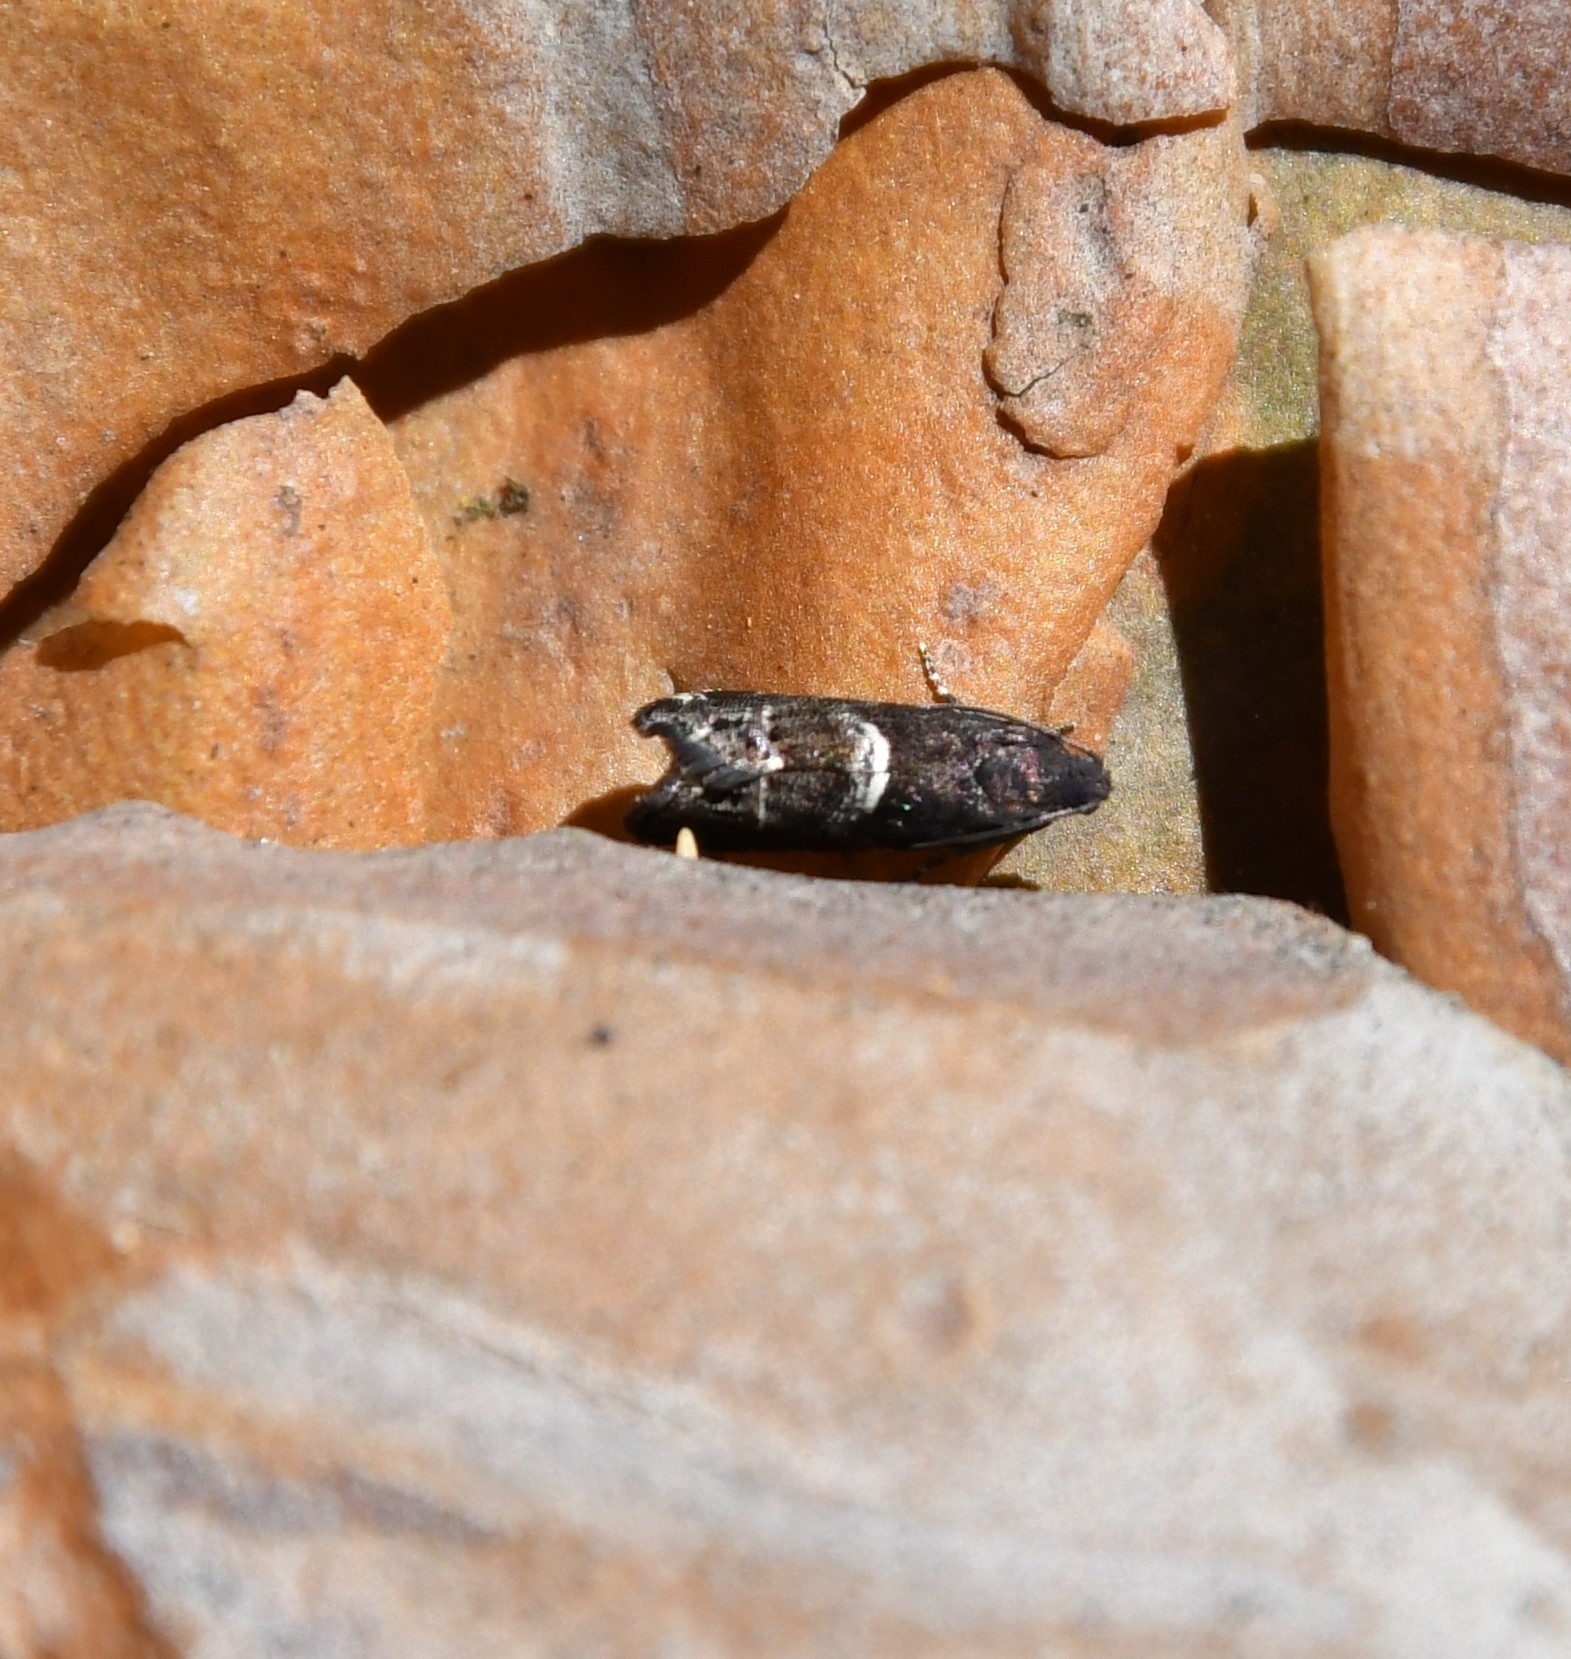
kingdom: Animalia
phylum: Arthropoda
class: Insecta
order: Lepidoptera
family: Tortricidae
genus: Cydia
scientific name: Cydia coniferana
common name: Pine-bark piercer
